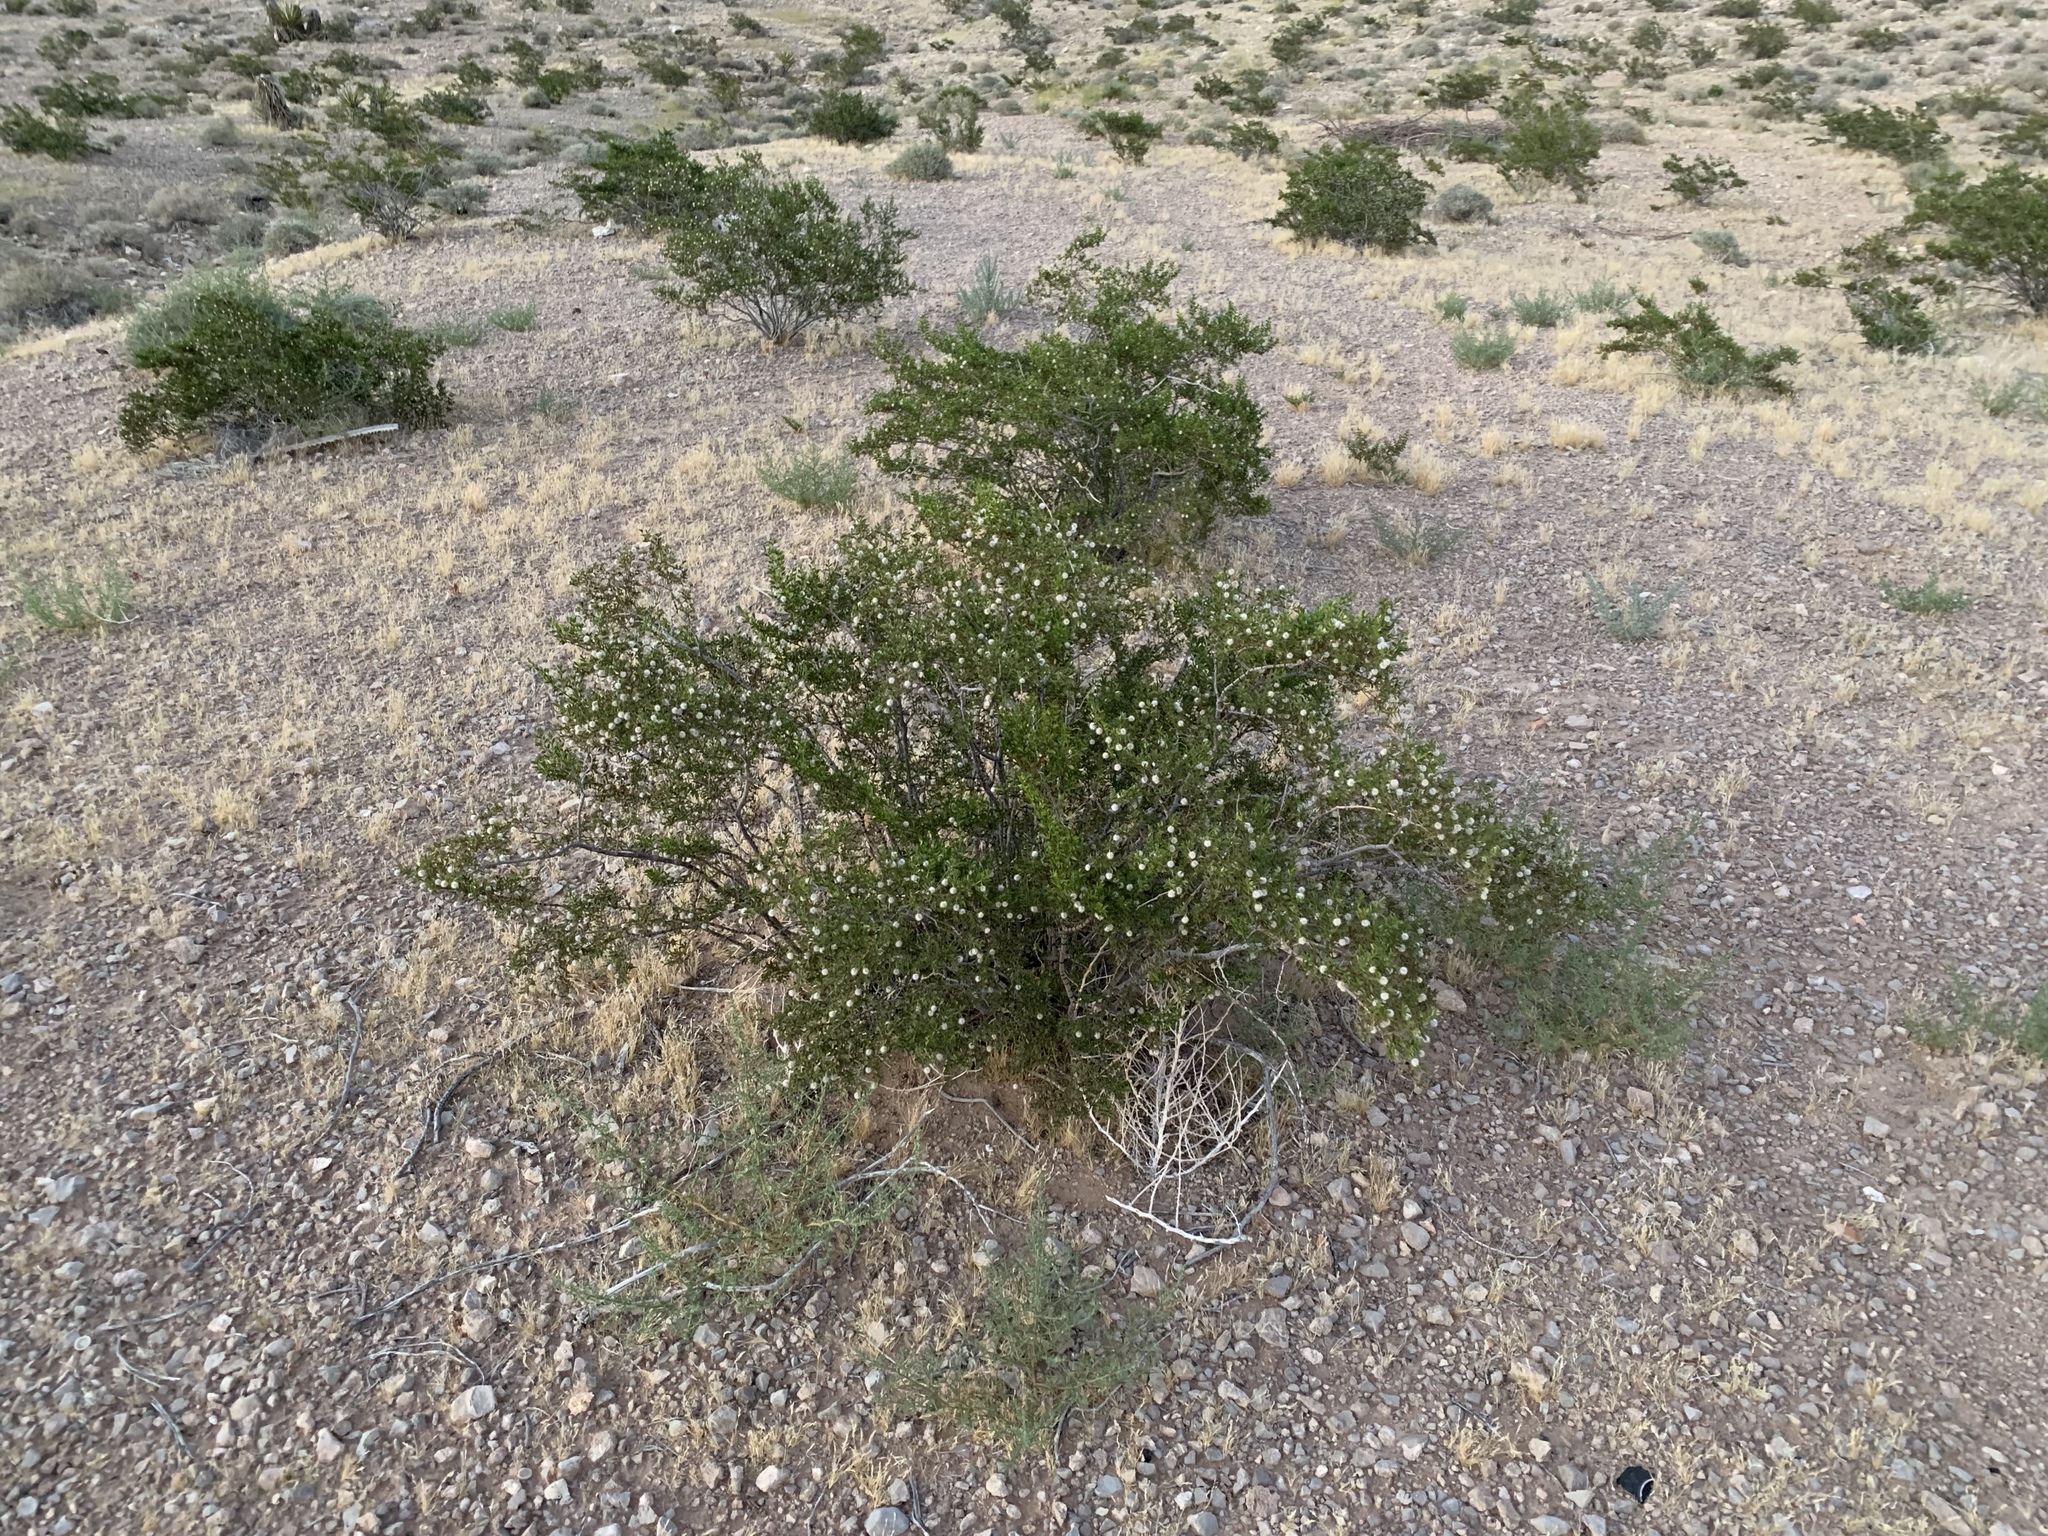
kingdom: Plantae
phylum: Tracheophyta
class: Magnoliopsida
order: Zygophyllales
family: Zygophyllaceae
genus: Larrea
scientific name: Larrea tridentata
